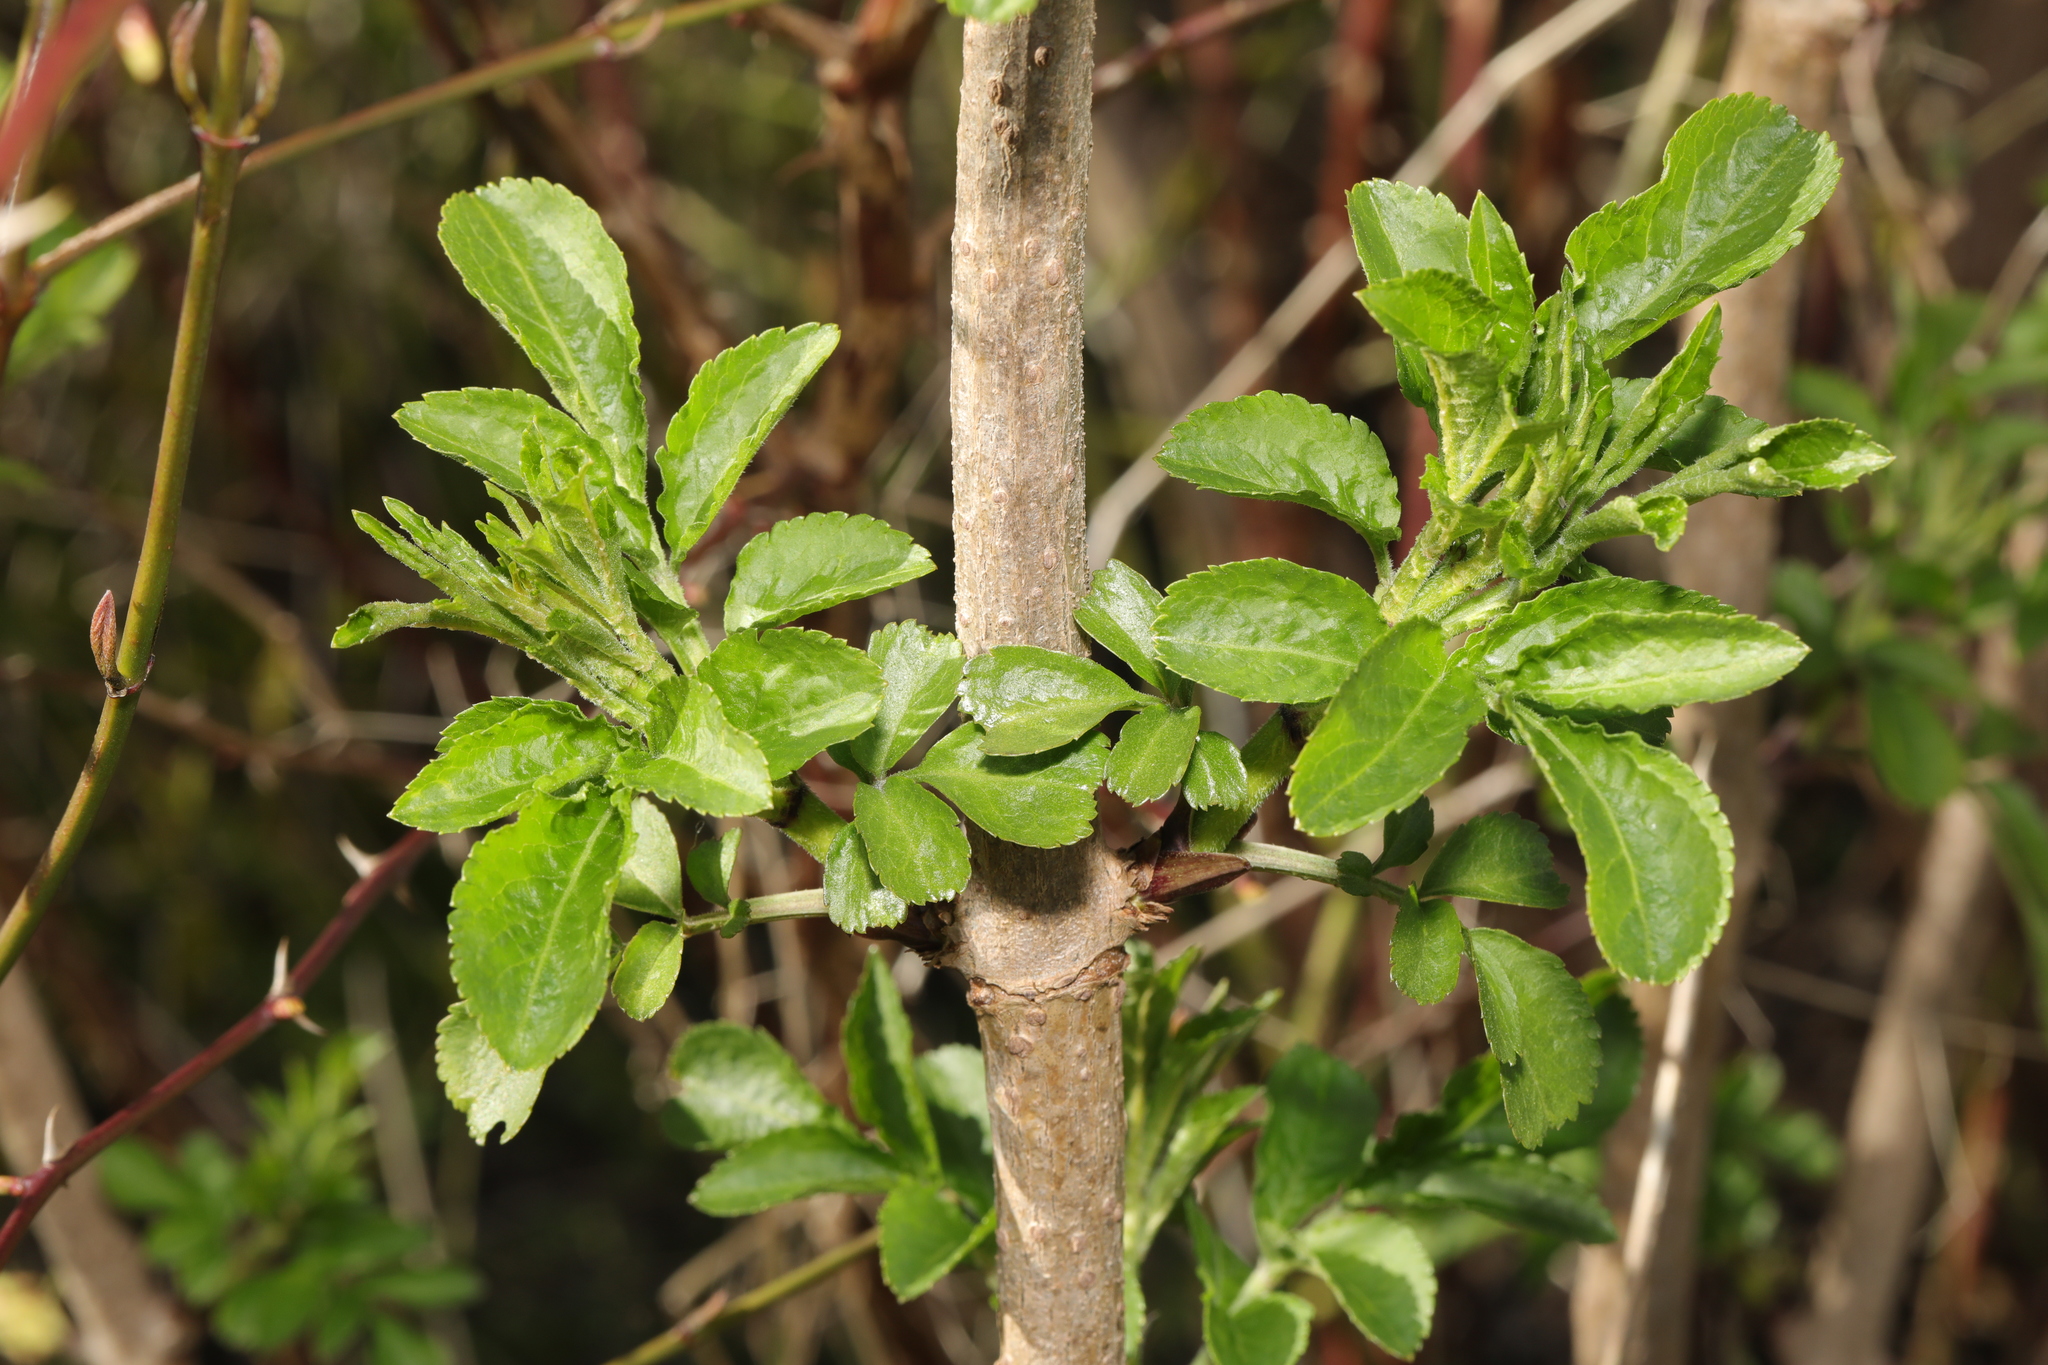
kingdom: Plantae
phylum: Tracheophyta
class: Magnoliopsida
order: Dipsacales
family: Viburnaceae
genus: Sambucus
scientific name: Sambucus nigra
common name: Elder
